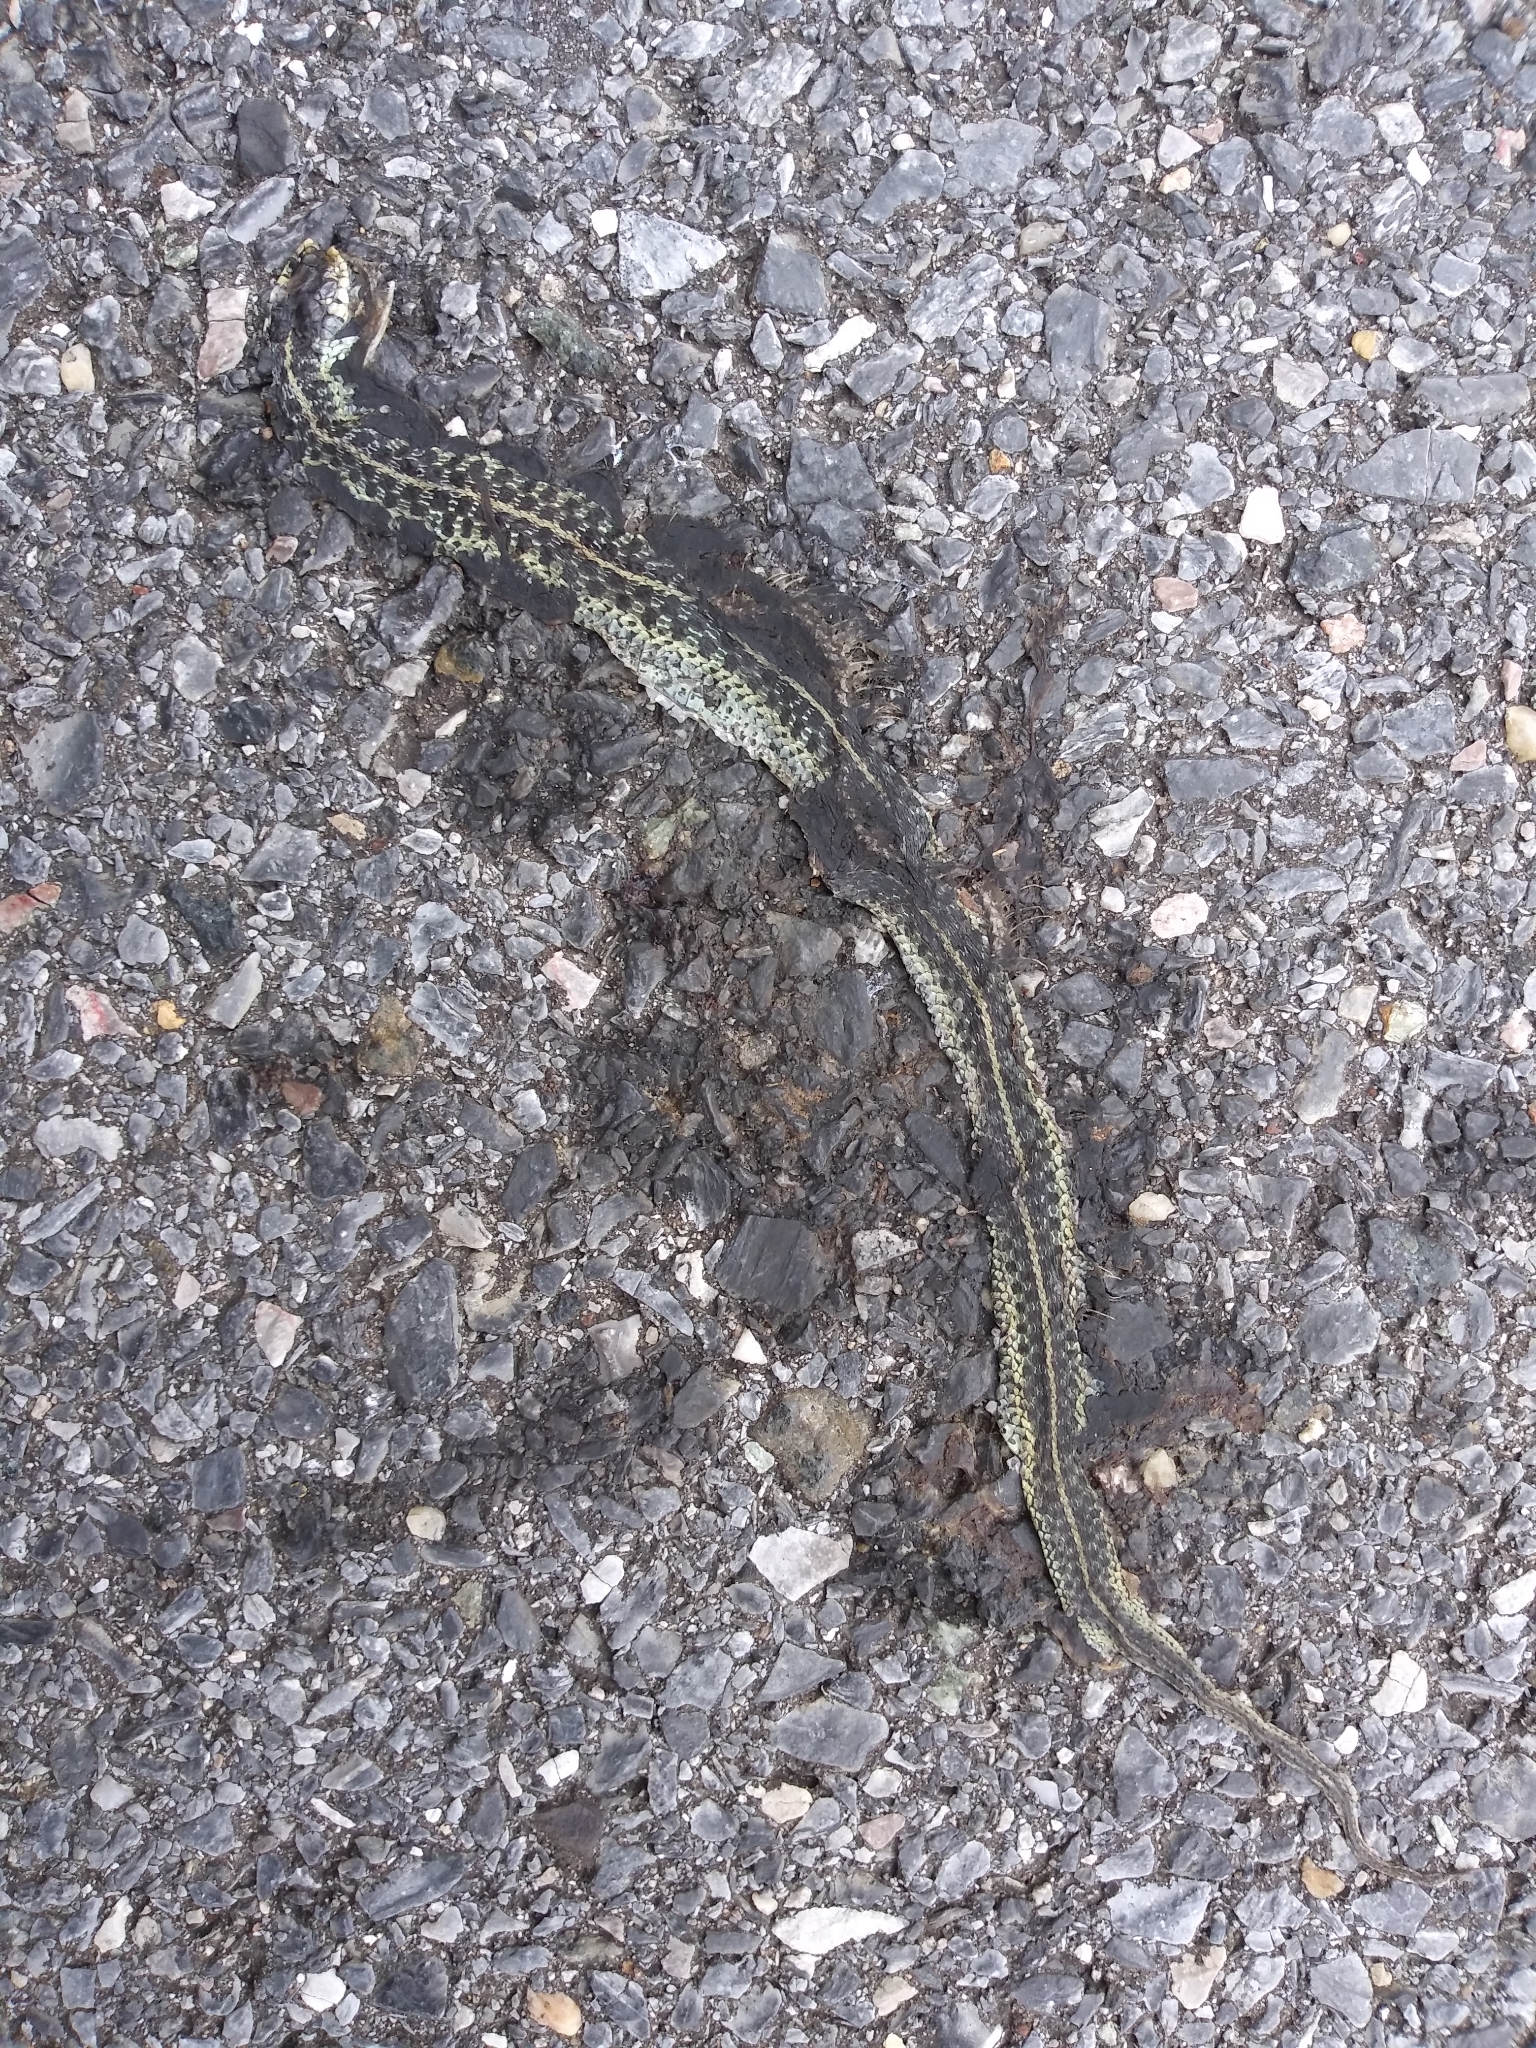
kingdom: Animalia
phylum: Chordata
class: Squamata
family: Colubridae
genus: Thamnophis
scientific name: Thamnophis sirtalis
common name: Common garter snake
